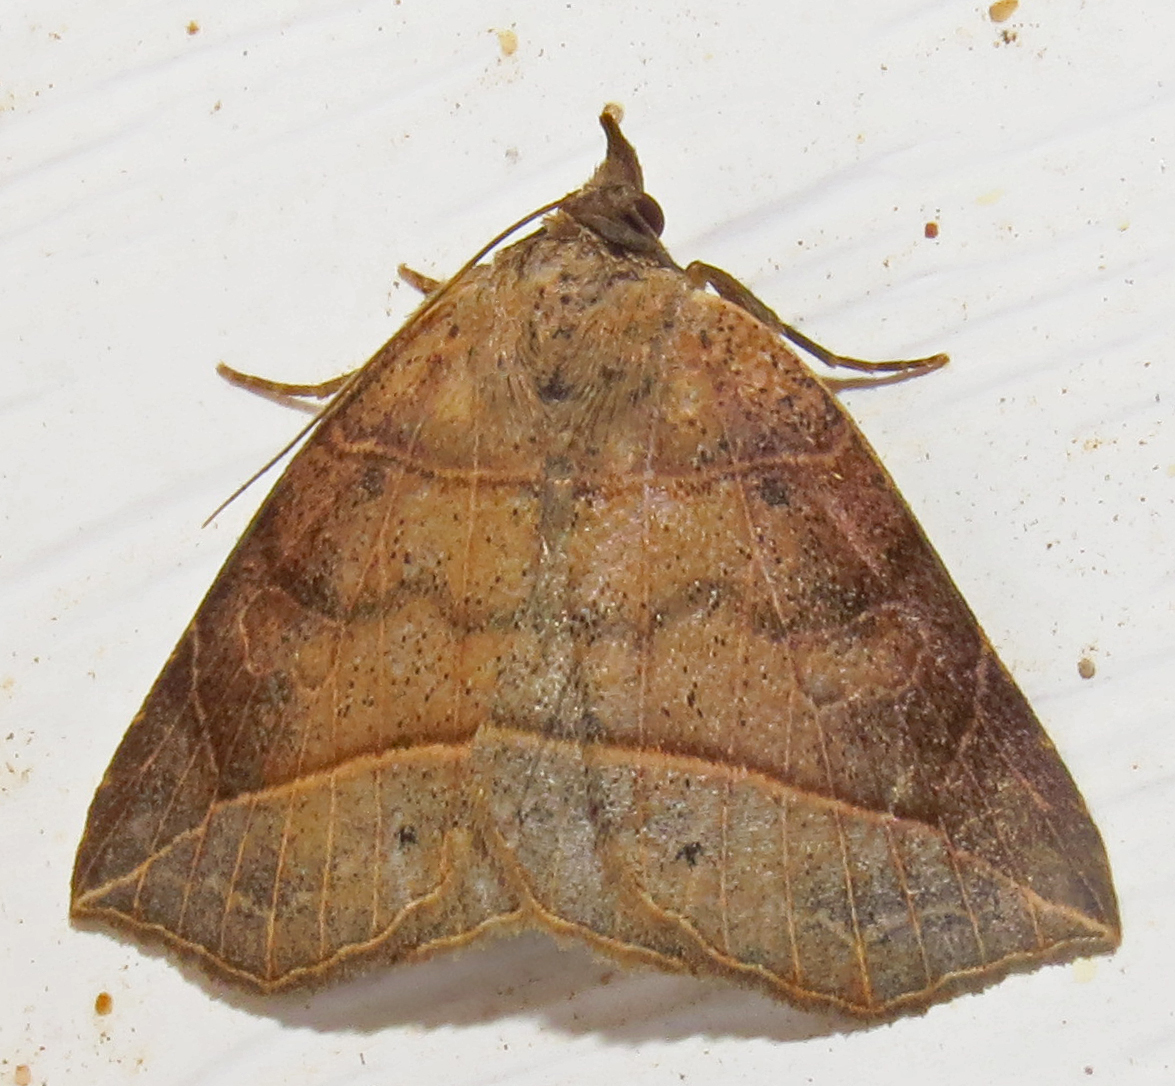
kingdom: Animalia
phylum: Arthropoda
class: Insecta
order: Lepidoptera
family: Erebidae
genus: Isogona
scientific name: Isogona tenuis
